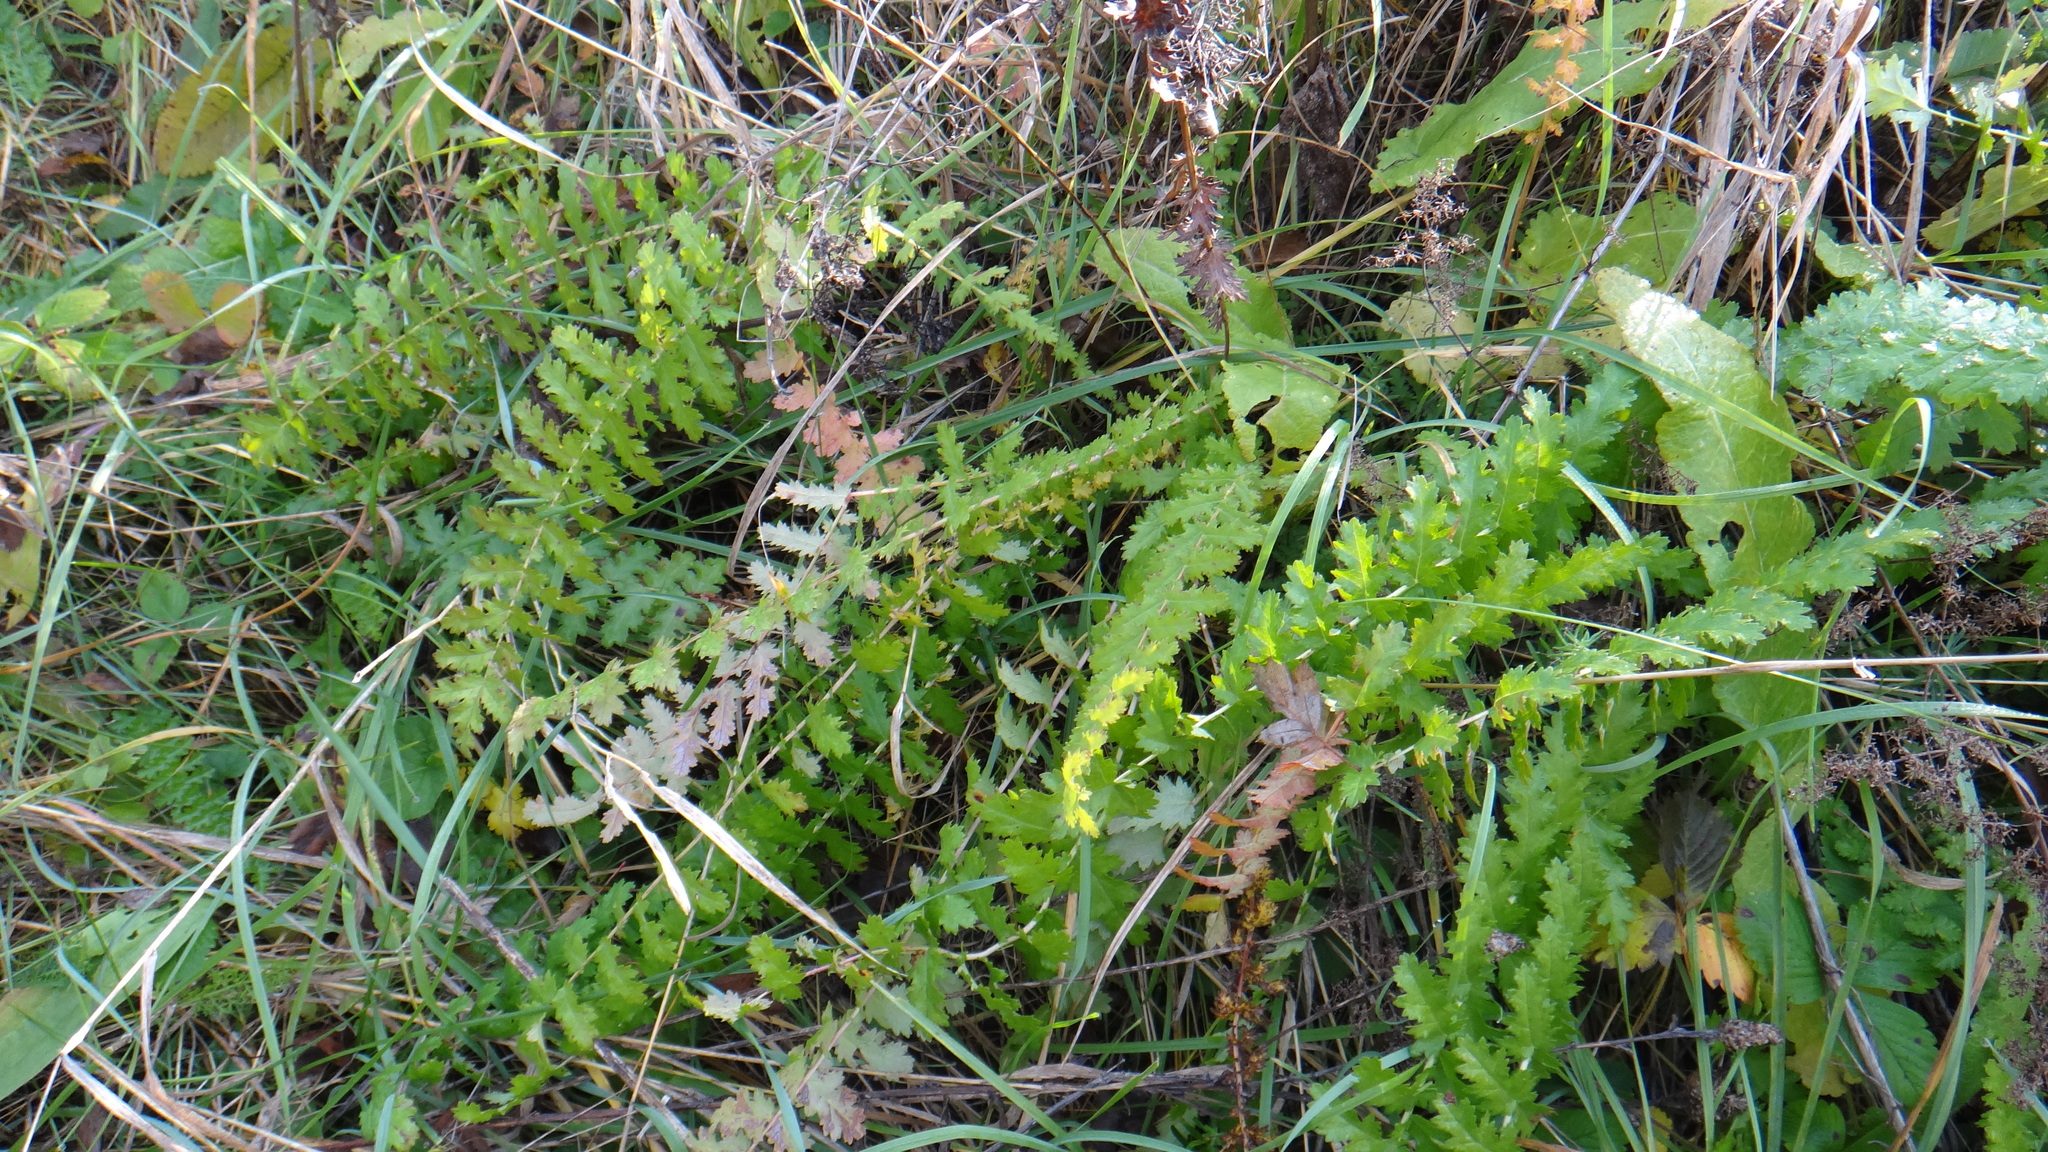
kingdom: Plantae
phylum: Tracheophyta
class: Magnoliopsida
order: Rosales
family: Rosaceae
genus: Filipendula
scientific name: Filipendula vulgaris
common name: Dropwort
